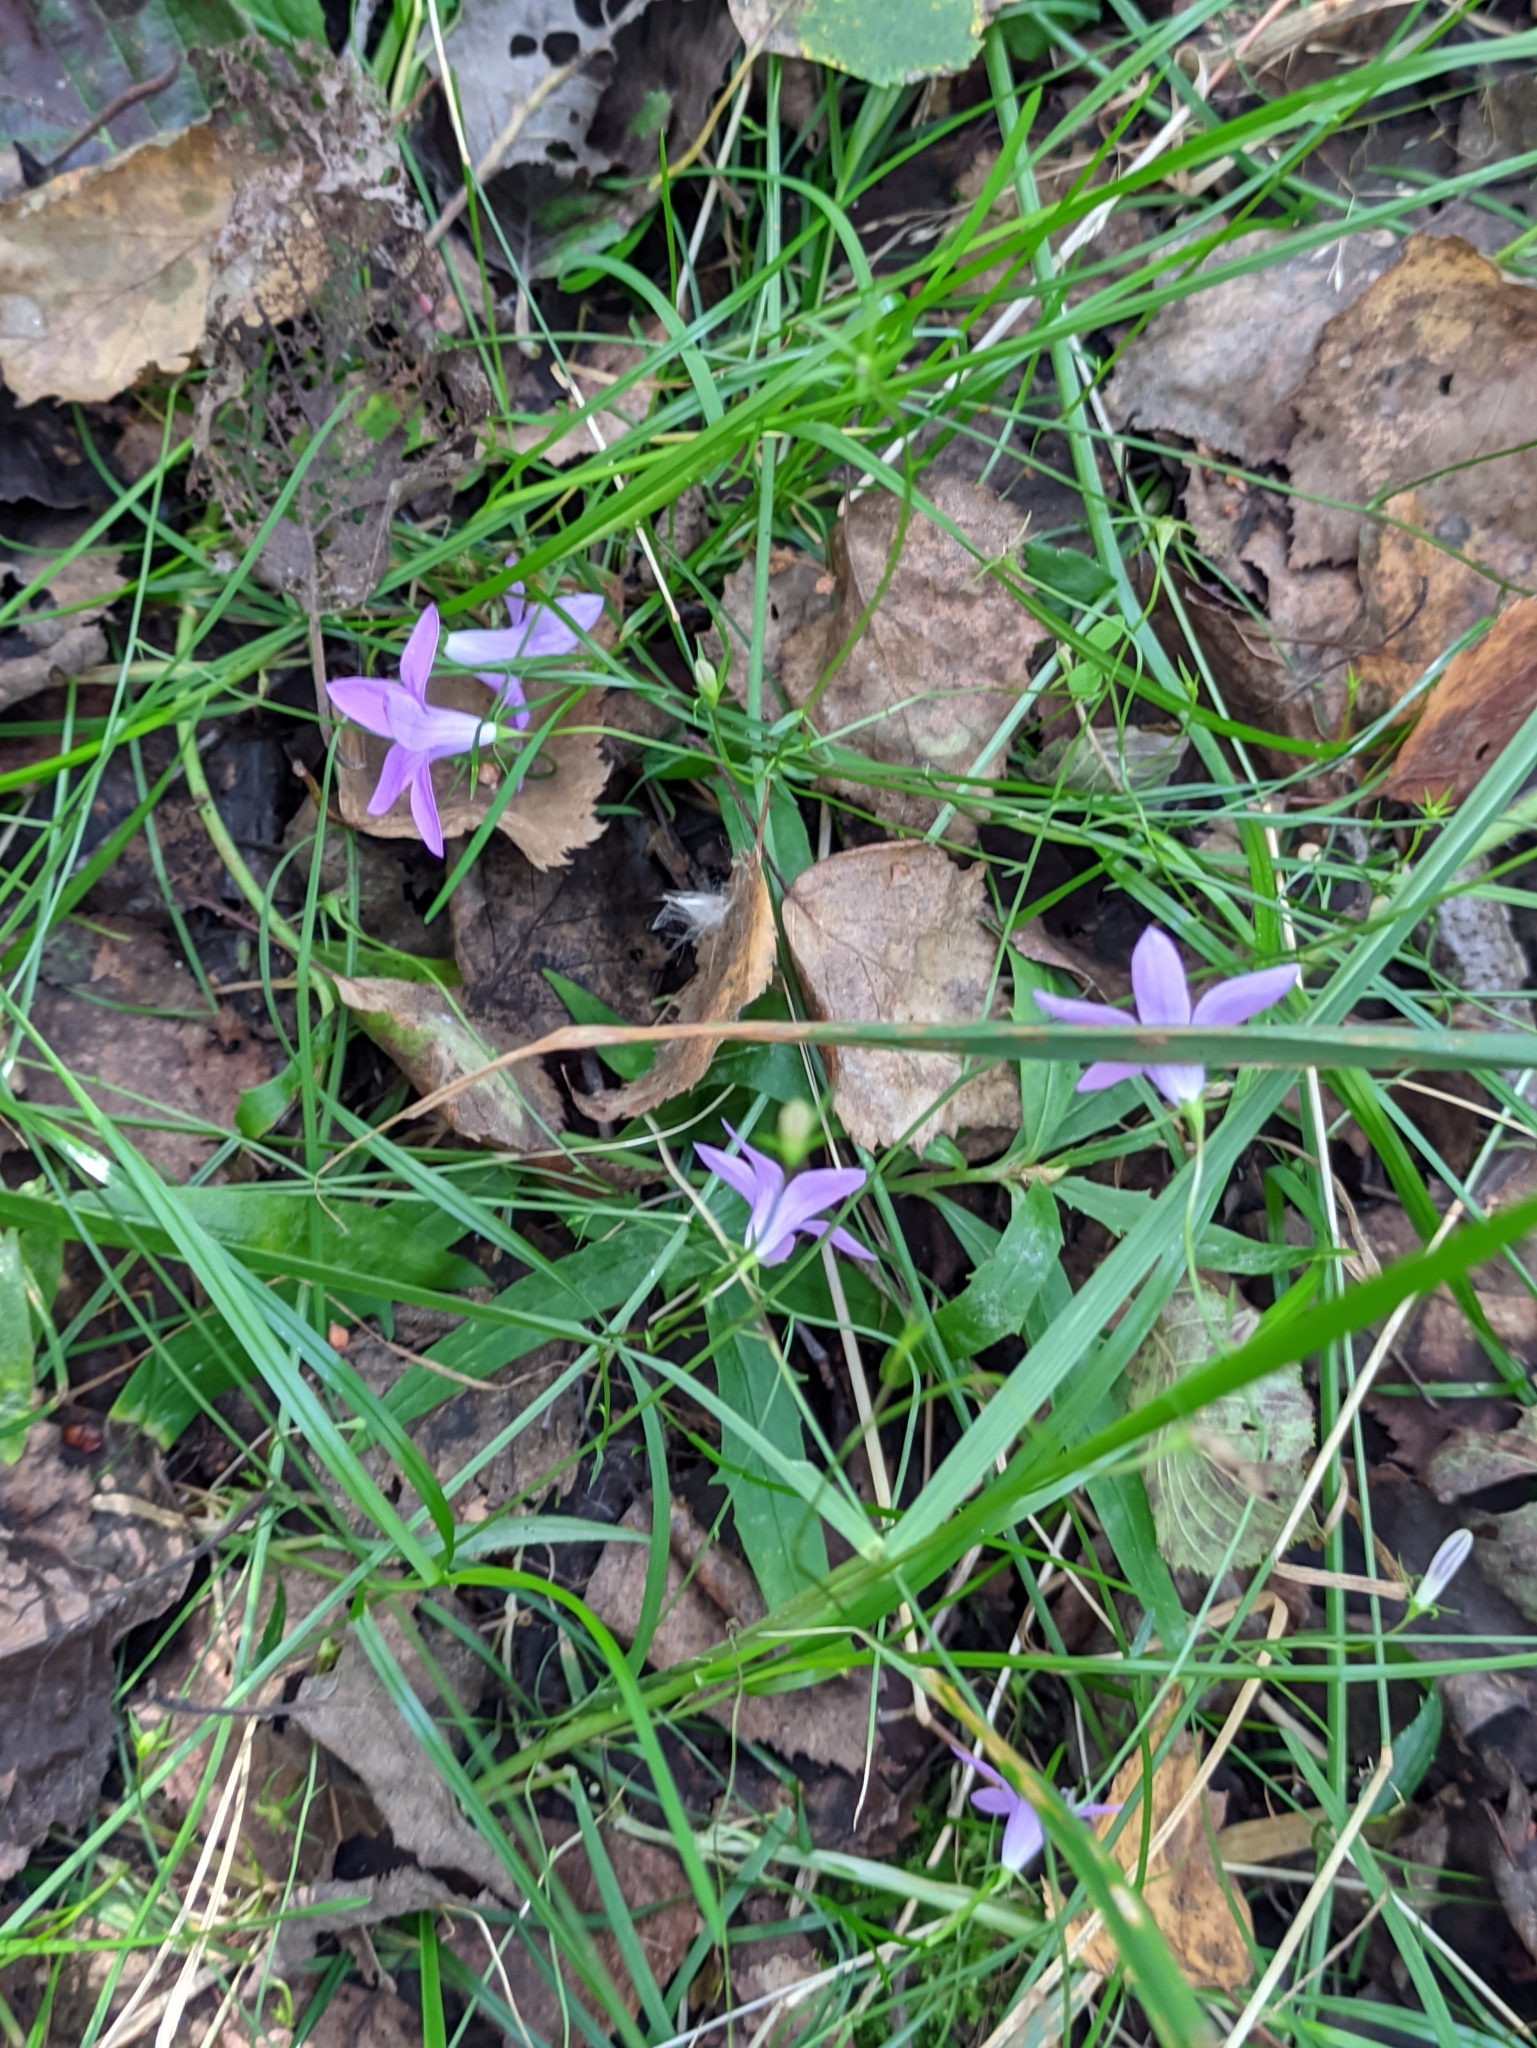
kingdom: Plantae
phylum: Tracheophyta
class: Magnoliopsida
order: Asterales
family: Campanulaceae
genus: Campanula
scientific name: Campanula patula
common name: Spreading bellflower
